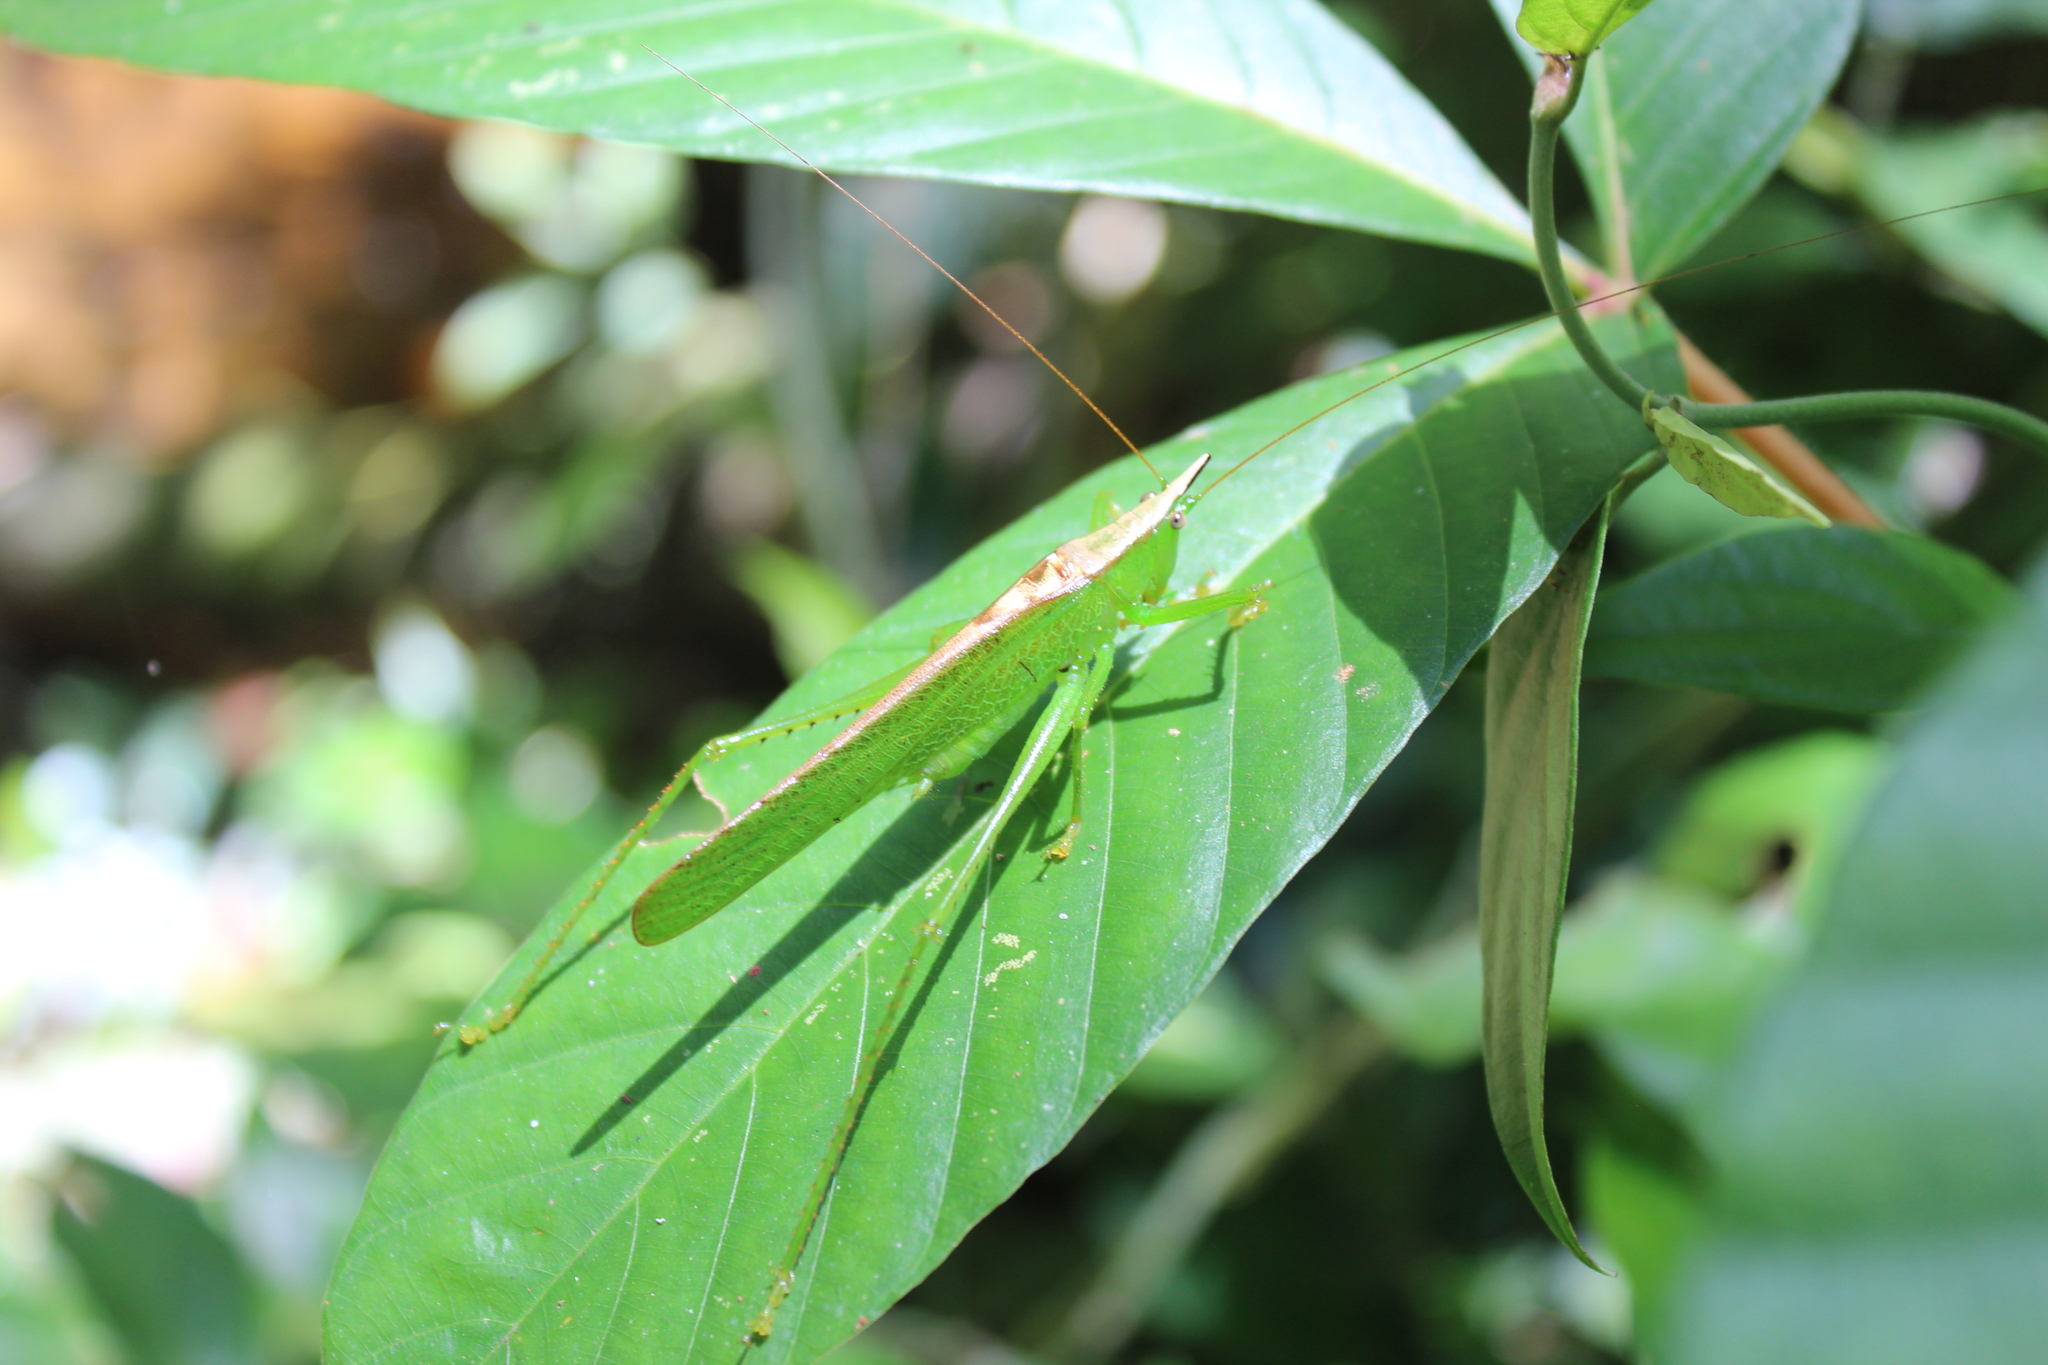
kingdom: Animalia
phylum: Arthropoda
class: Insecta
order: Orthoptera
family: Tettigoniidae
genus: Melanophoxus
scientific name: Melanophoxus brunneri
